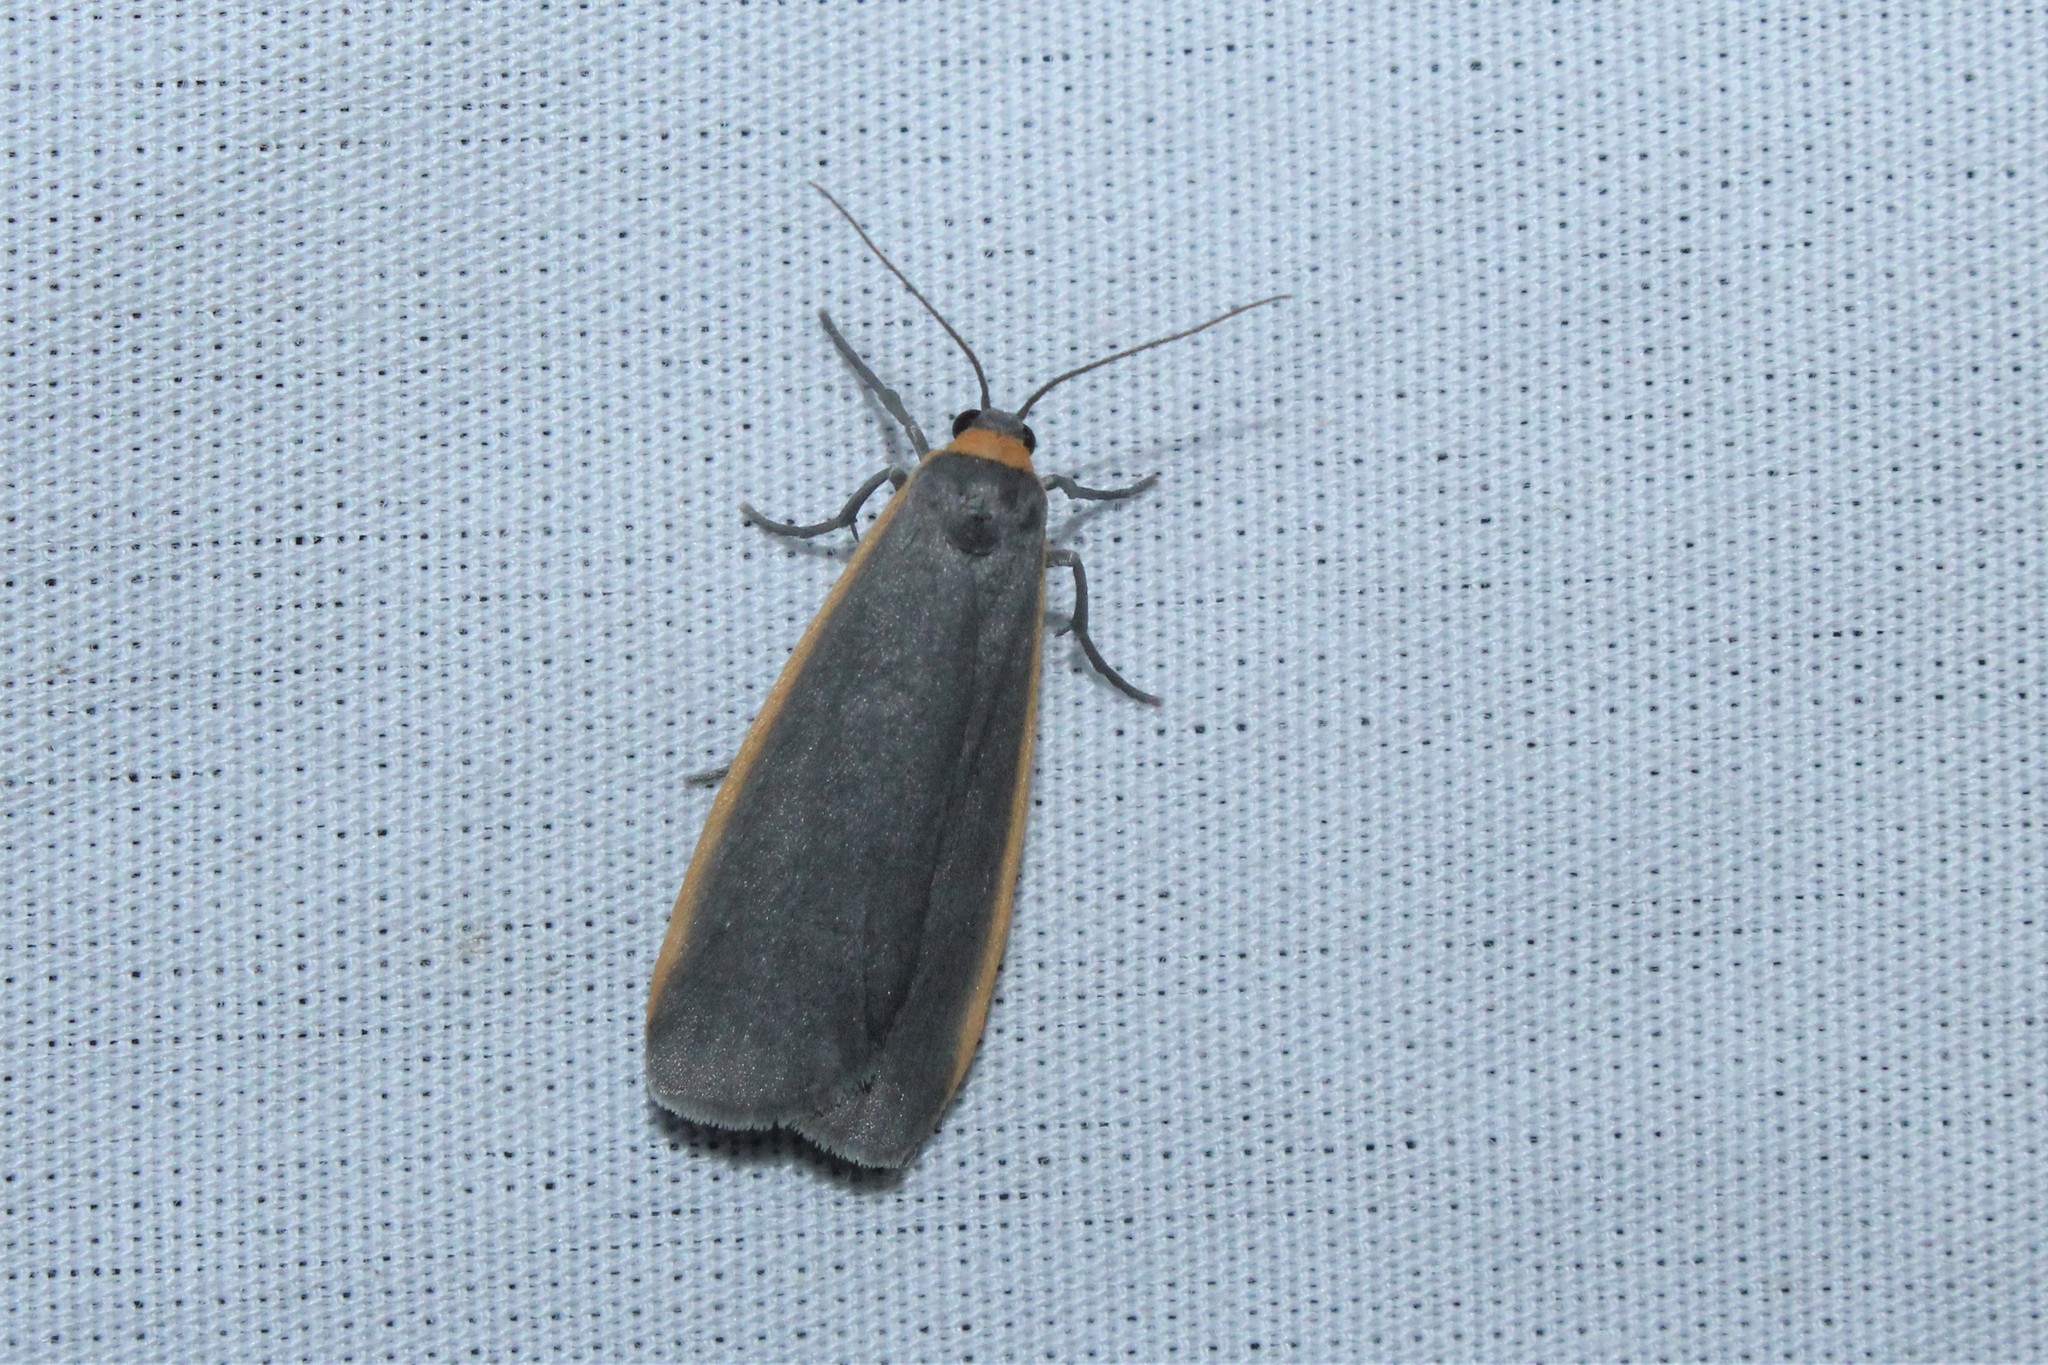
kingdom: Animalia
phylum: Arthropoda
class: Insecta
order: Lepidoptera
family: Erebidae
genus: Manulea
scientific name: Manulea bicolor
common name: Bicolored moth
